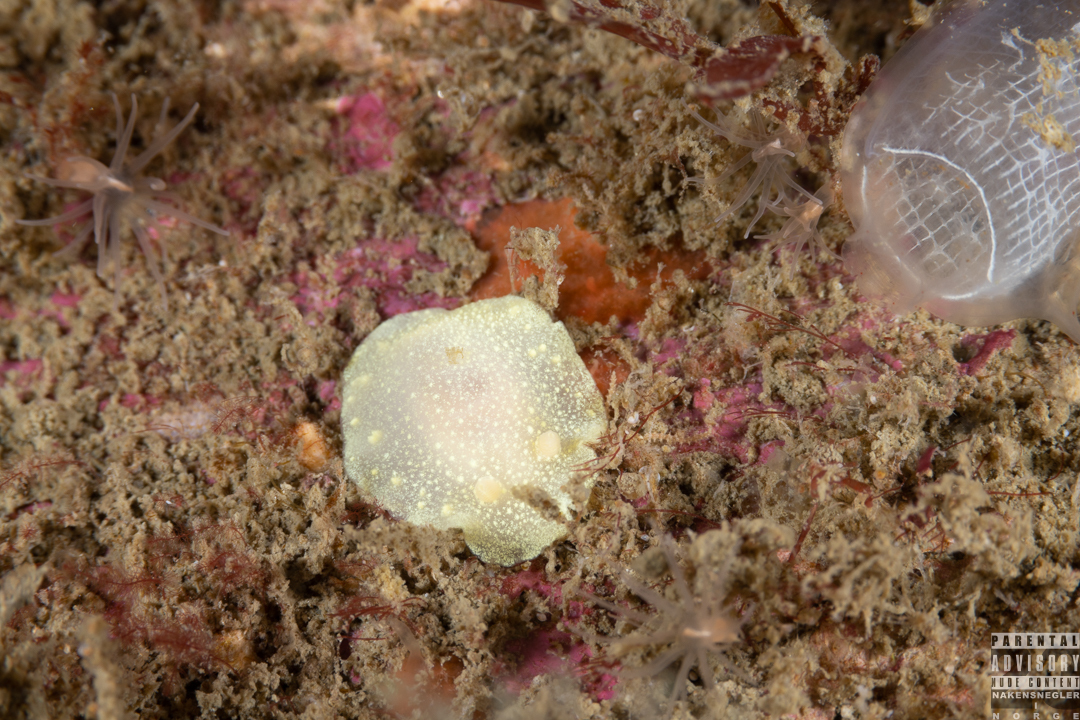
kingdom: Animalia
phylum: Mollusca
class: Gastropoda
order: Nudibranchia
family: Cadlinidae
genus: Cadlina
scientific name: Cadlina laevis
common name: White atlantic cadlina
